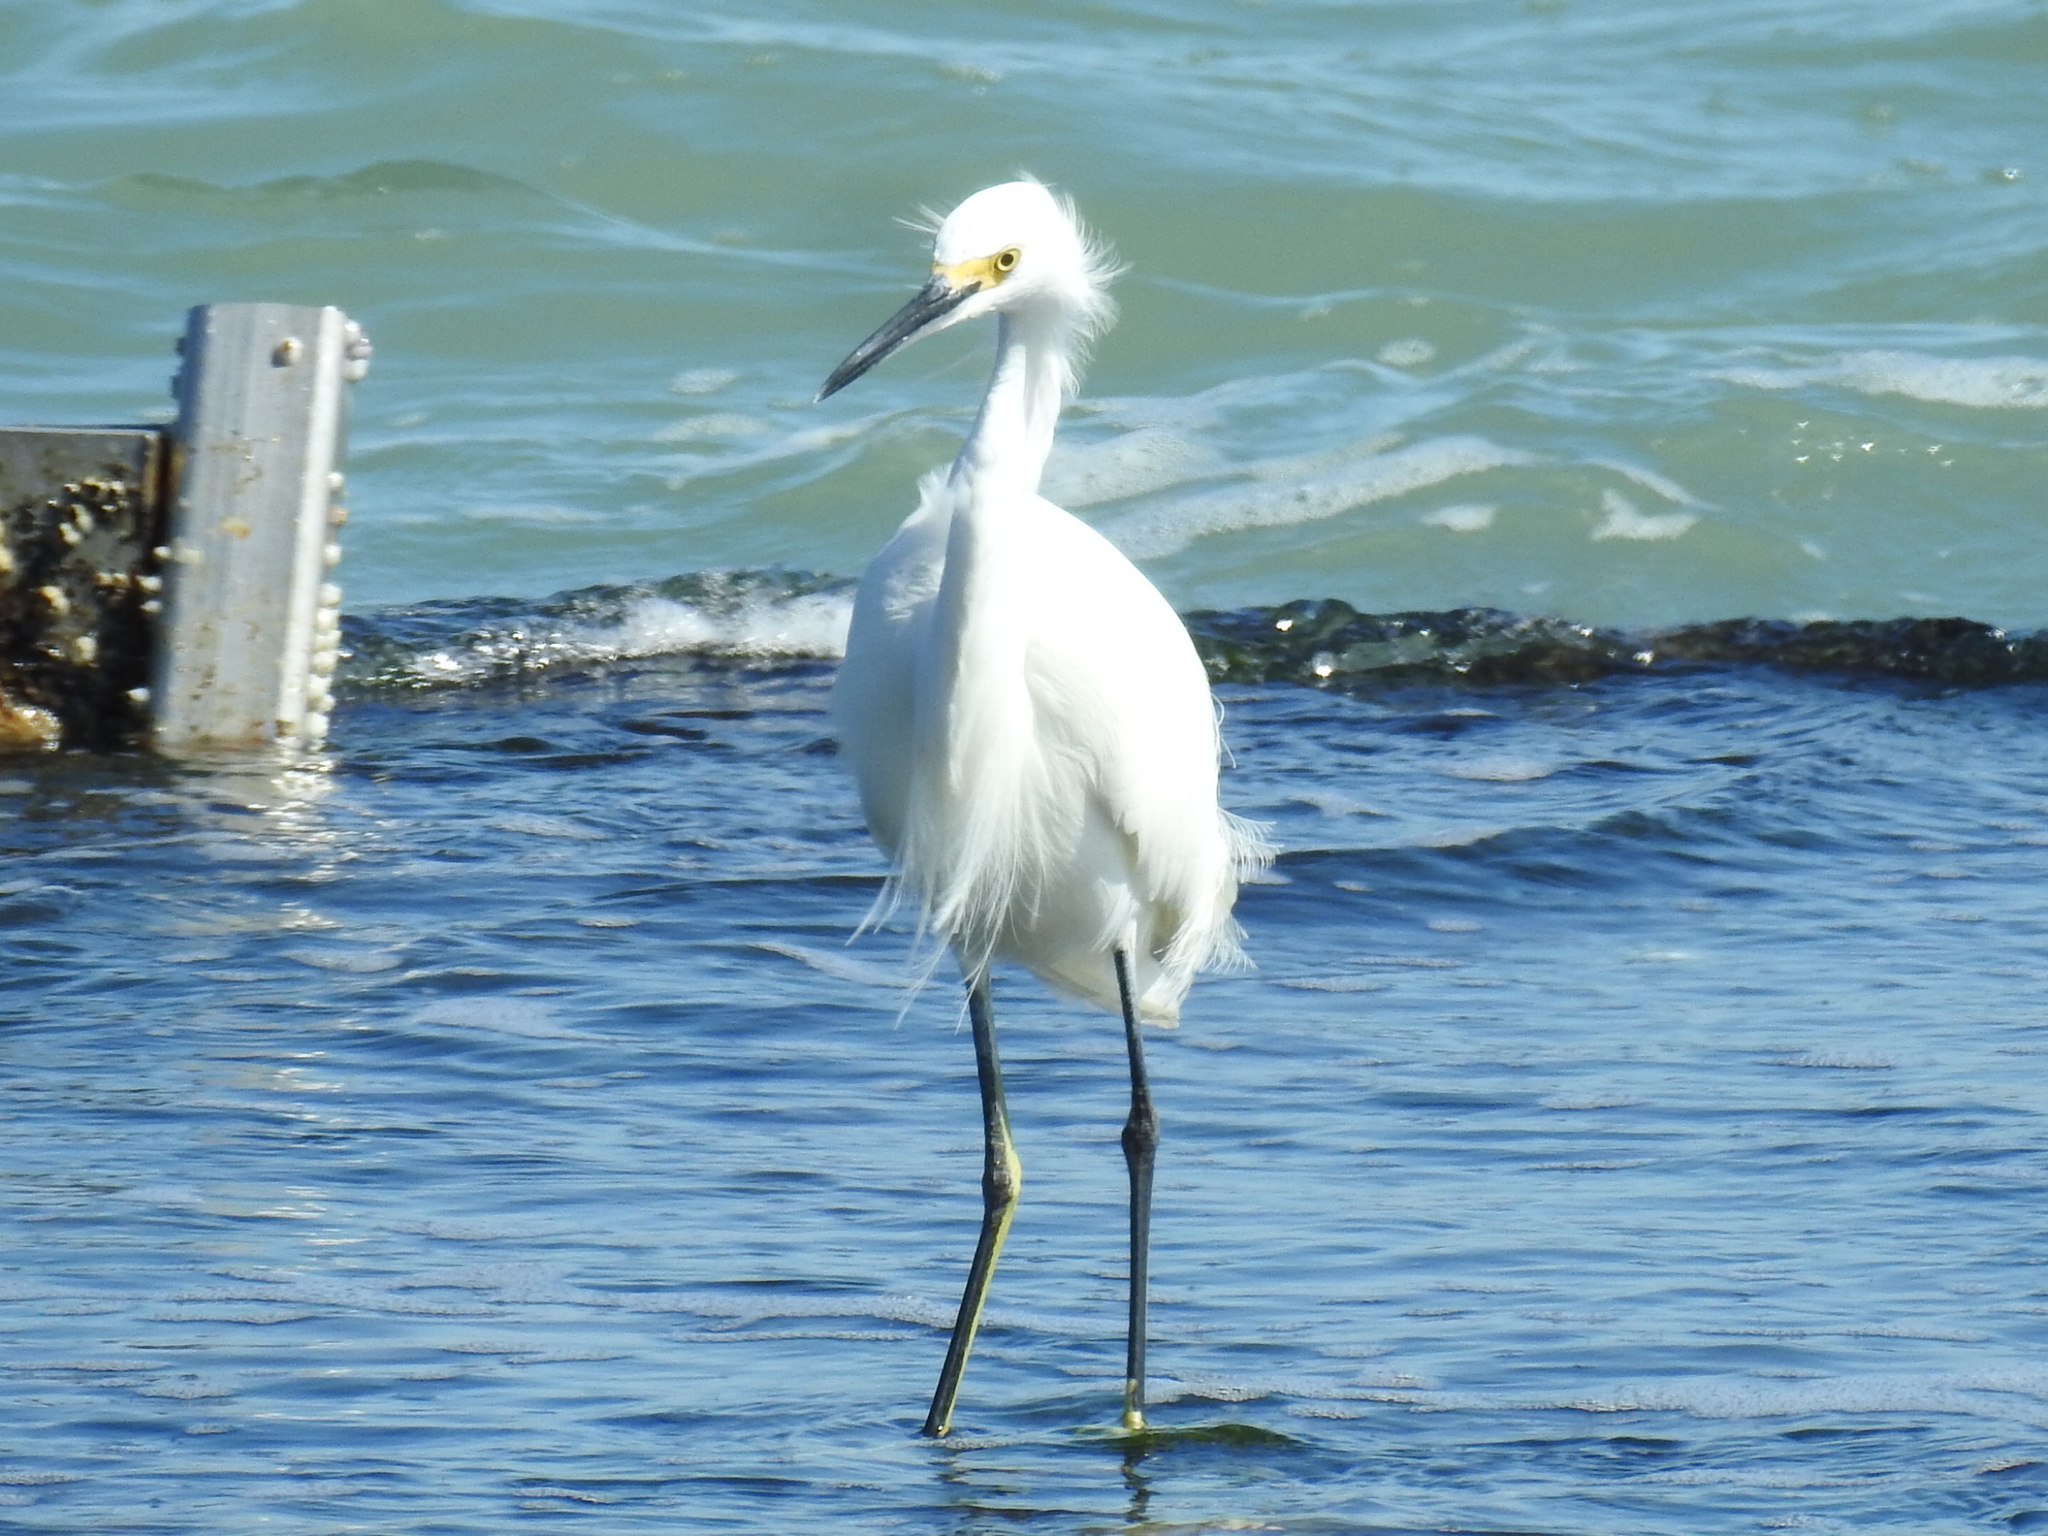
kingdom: Animalia
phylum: Chordata
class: Aves
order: Pelecaniformes
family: Ardeidae
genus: Egretta
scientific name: Egretta thula
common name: Snowy egret
